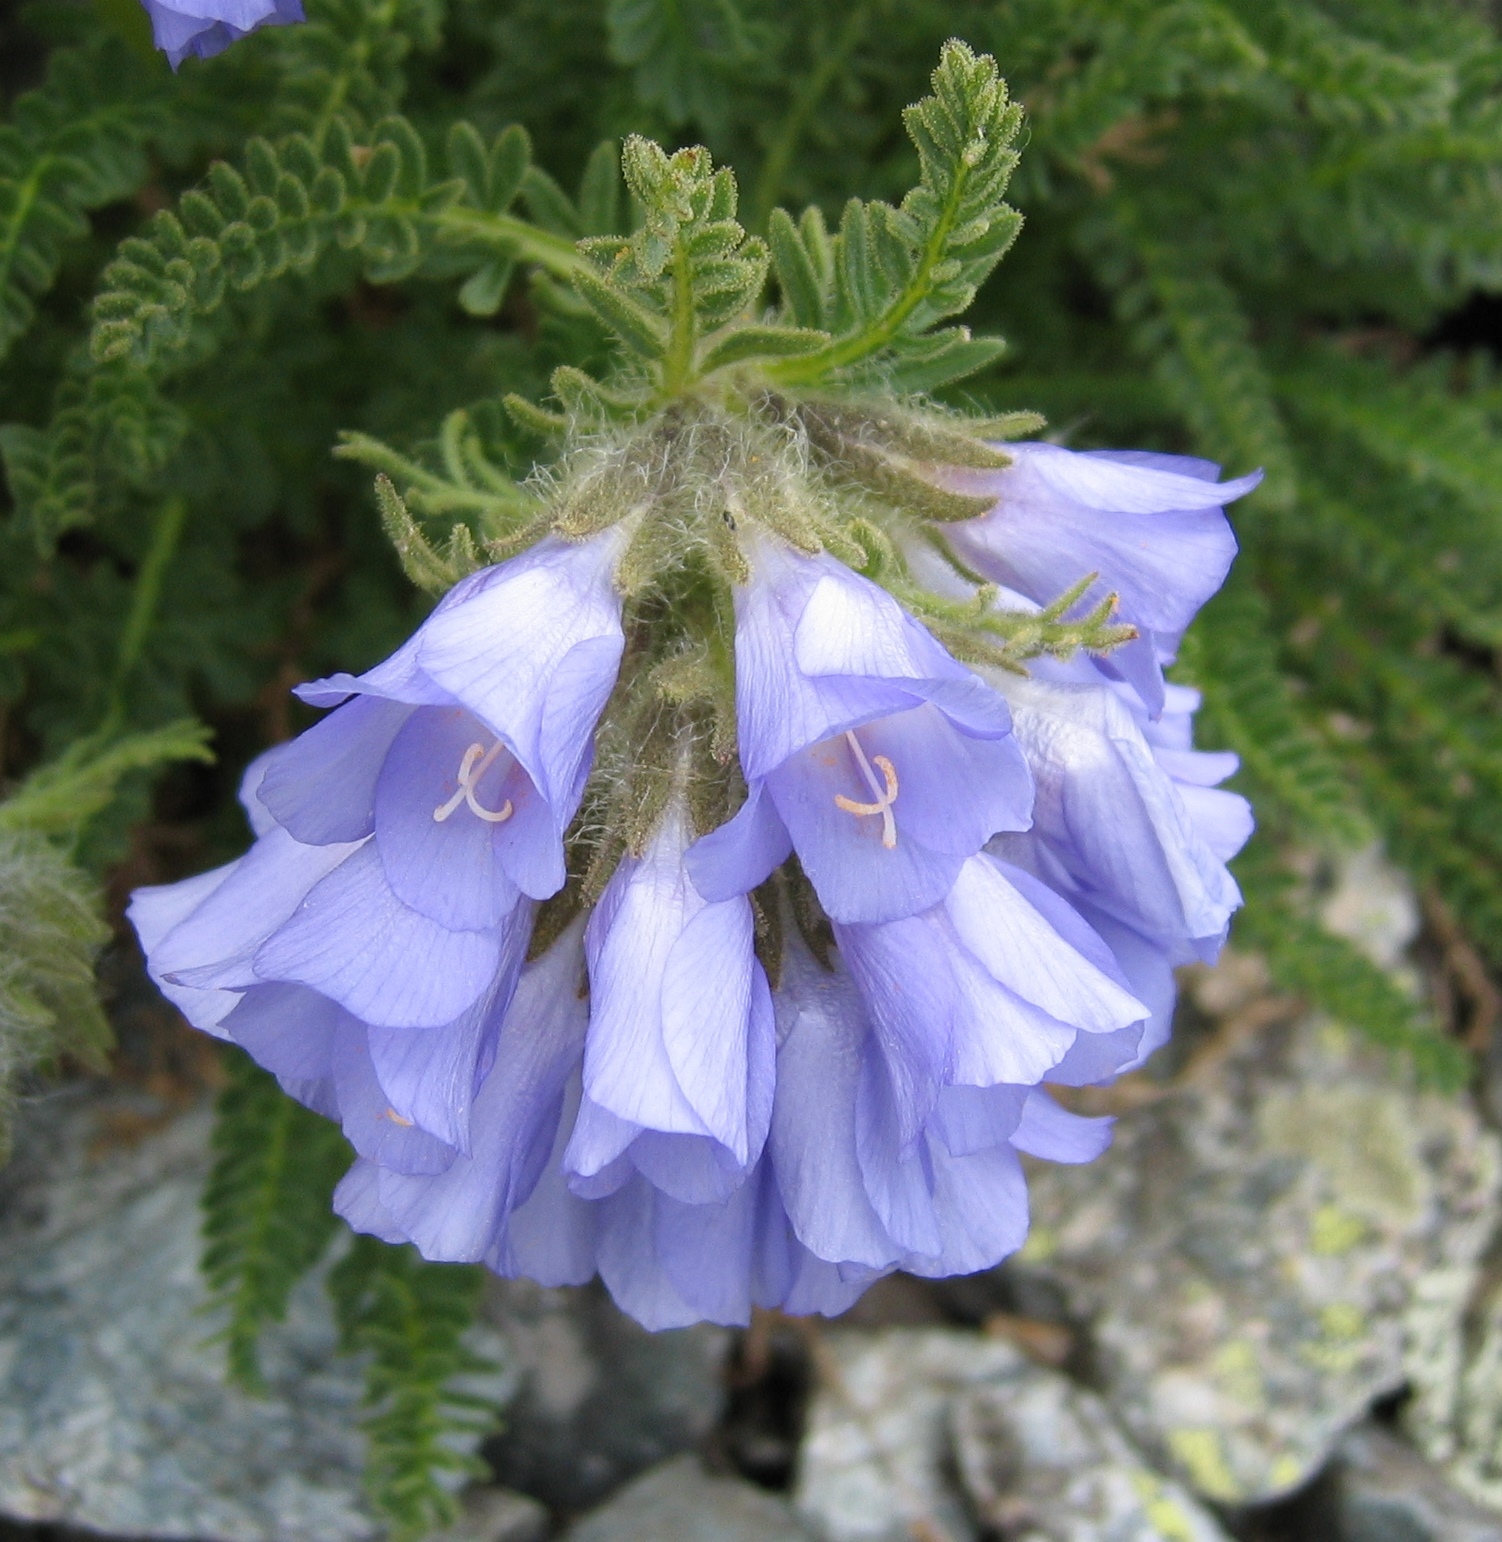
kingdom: Plantae
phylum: Tracheophyta
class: Magnoliopsida
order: Ericales
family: Polemoniaceae
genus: Polemonium
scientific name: Polemonium viscosum
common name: Skunk jacob's-ladder
